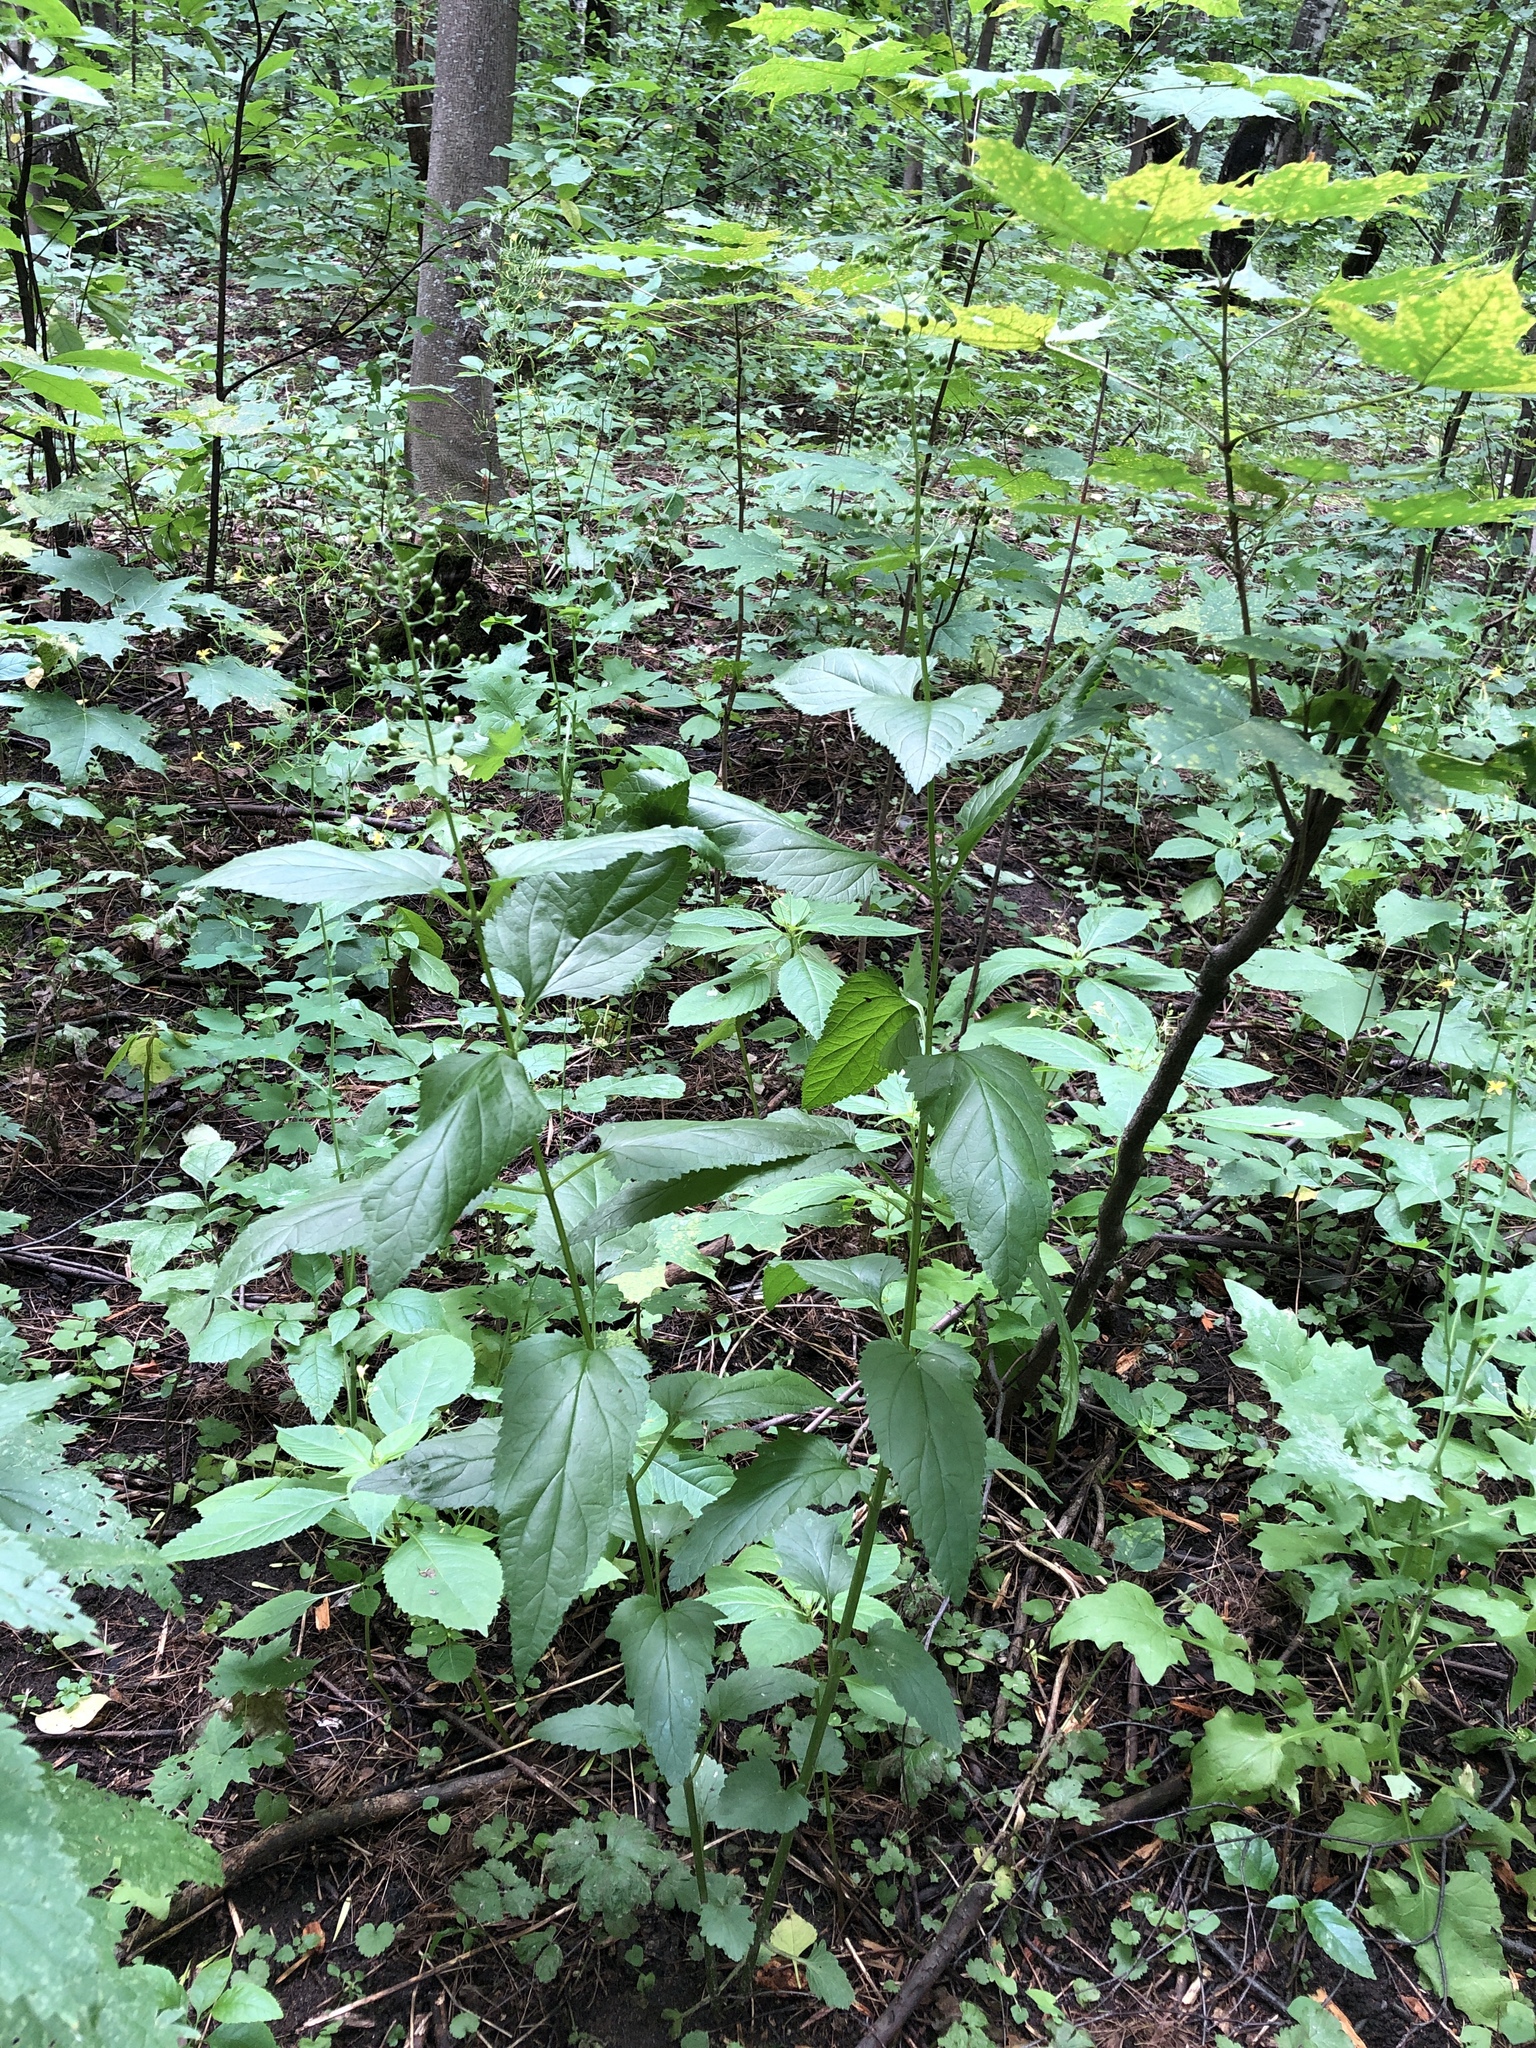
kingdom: Plantae
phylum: Tracheophyta
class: Magnoliopsida
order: Lamiales
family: Scrophulariaceae
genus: Scrophularia
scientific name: Scrophularia nodosa
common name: Common figwort
